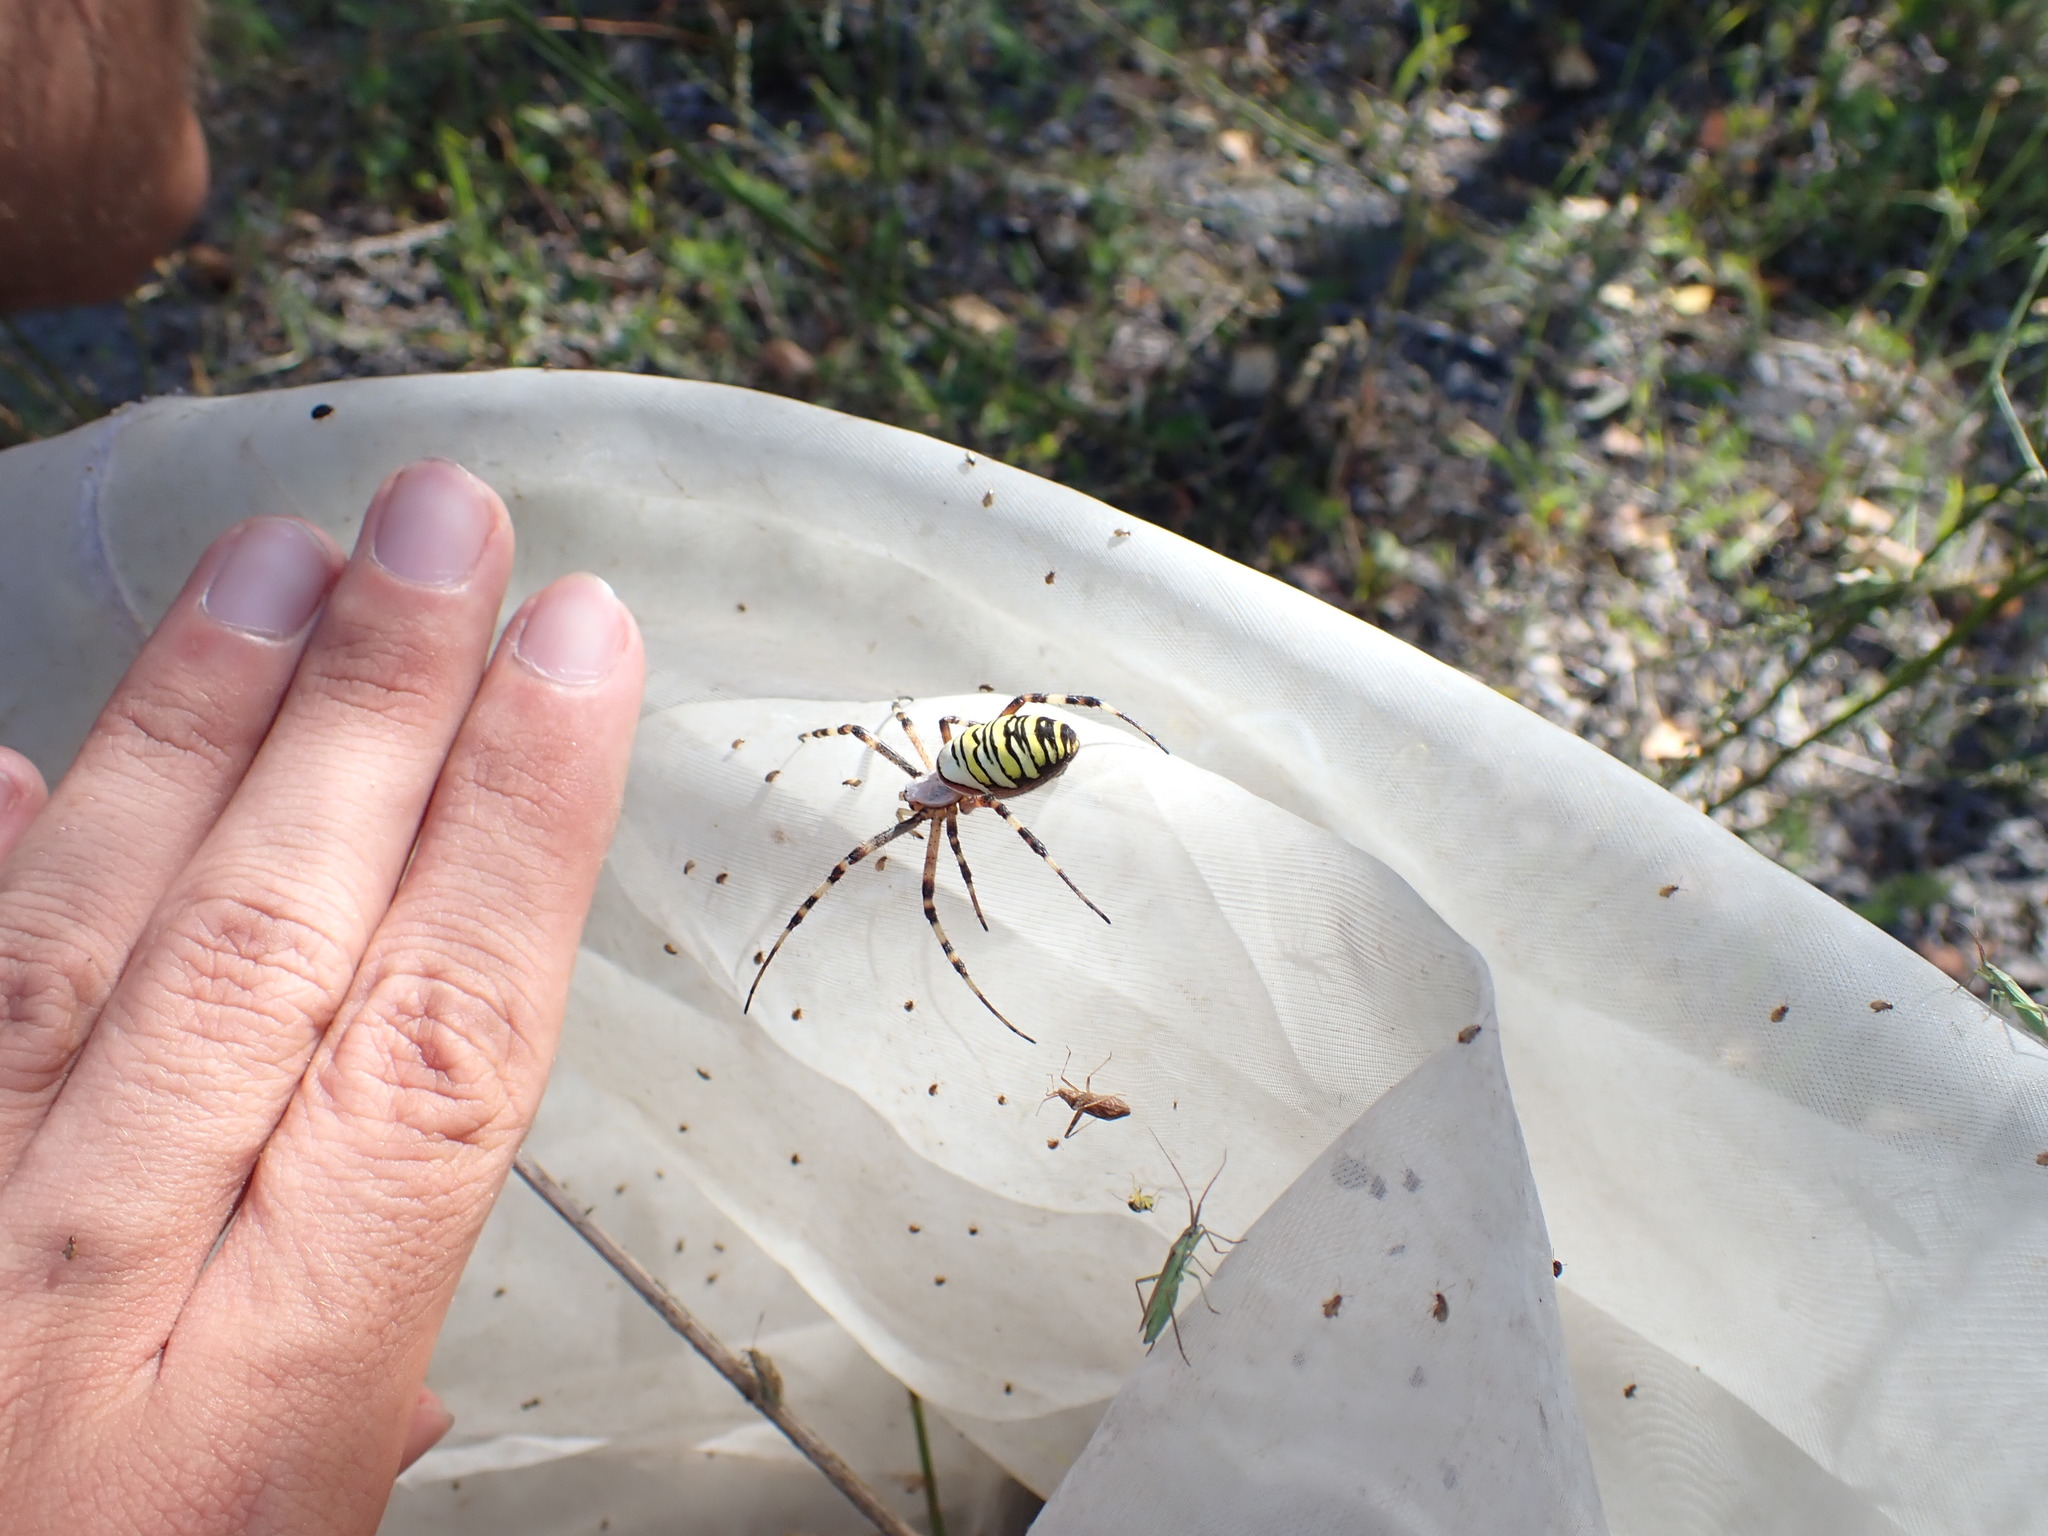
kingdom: Animalia
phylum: Arthropoda
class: Arachnida
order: Araneae
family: Araneidae
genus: Argiope
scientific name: Argiope bruennichi
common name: Wasp spider
